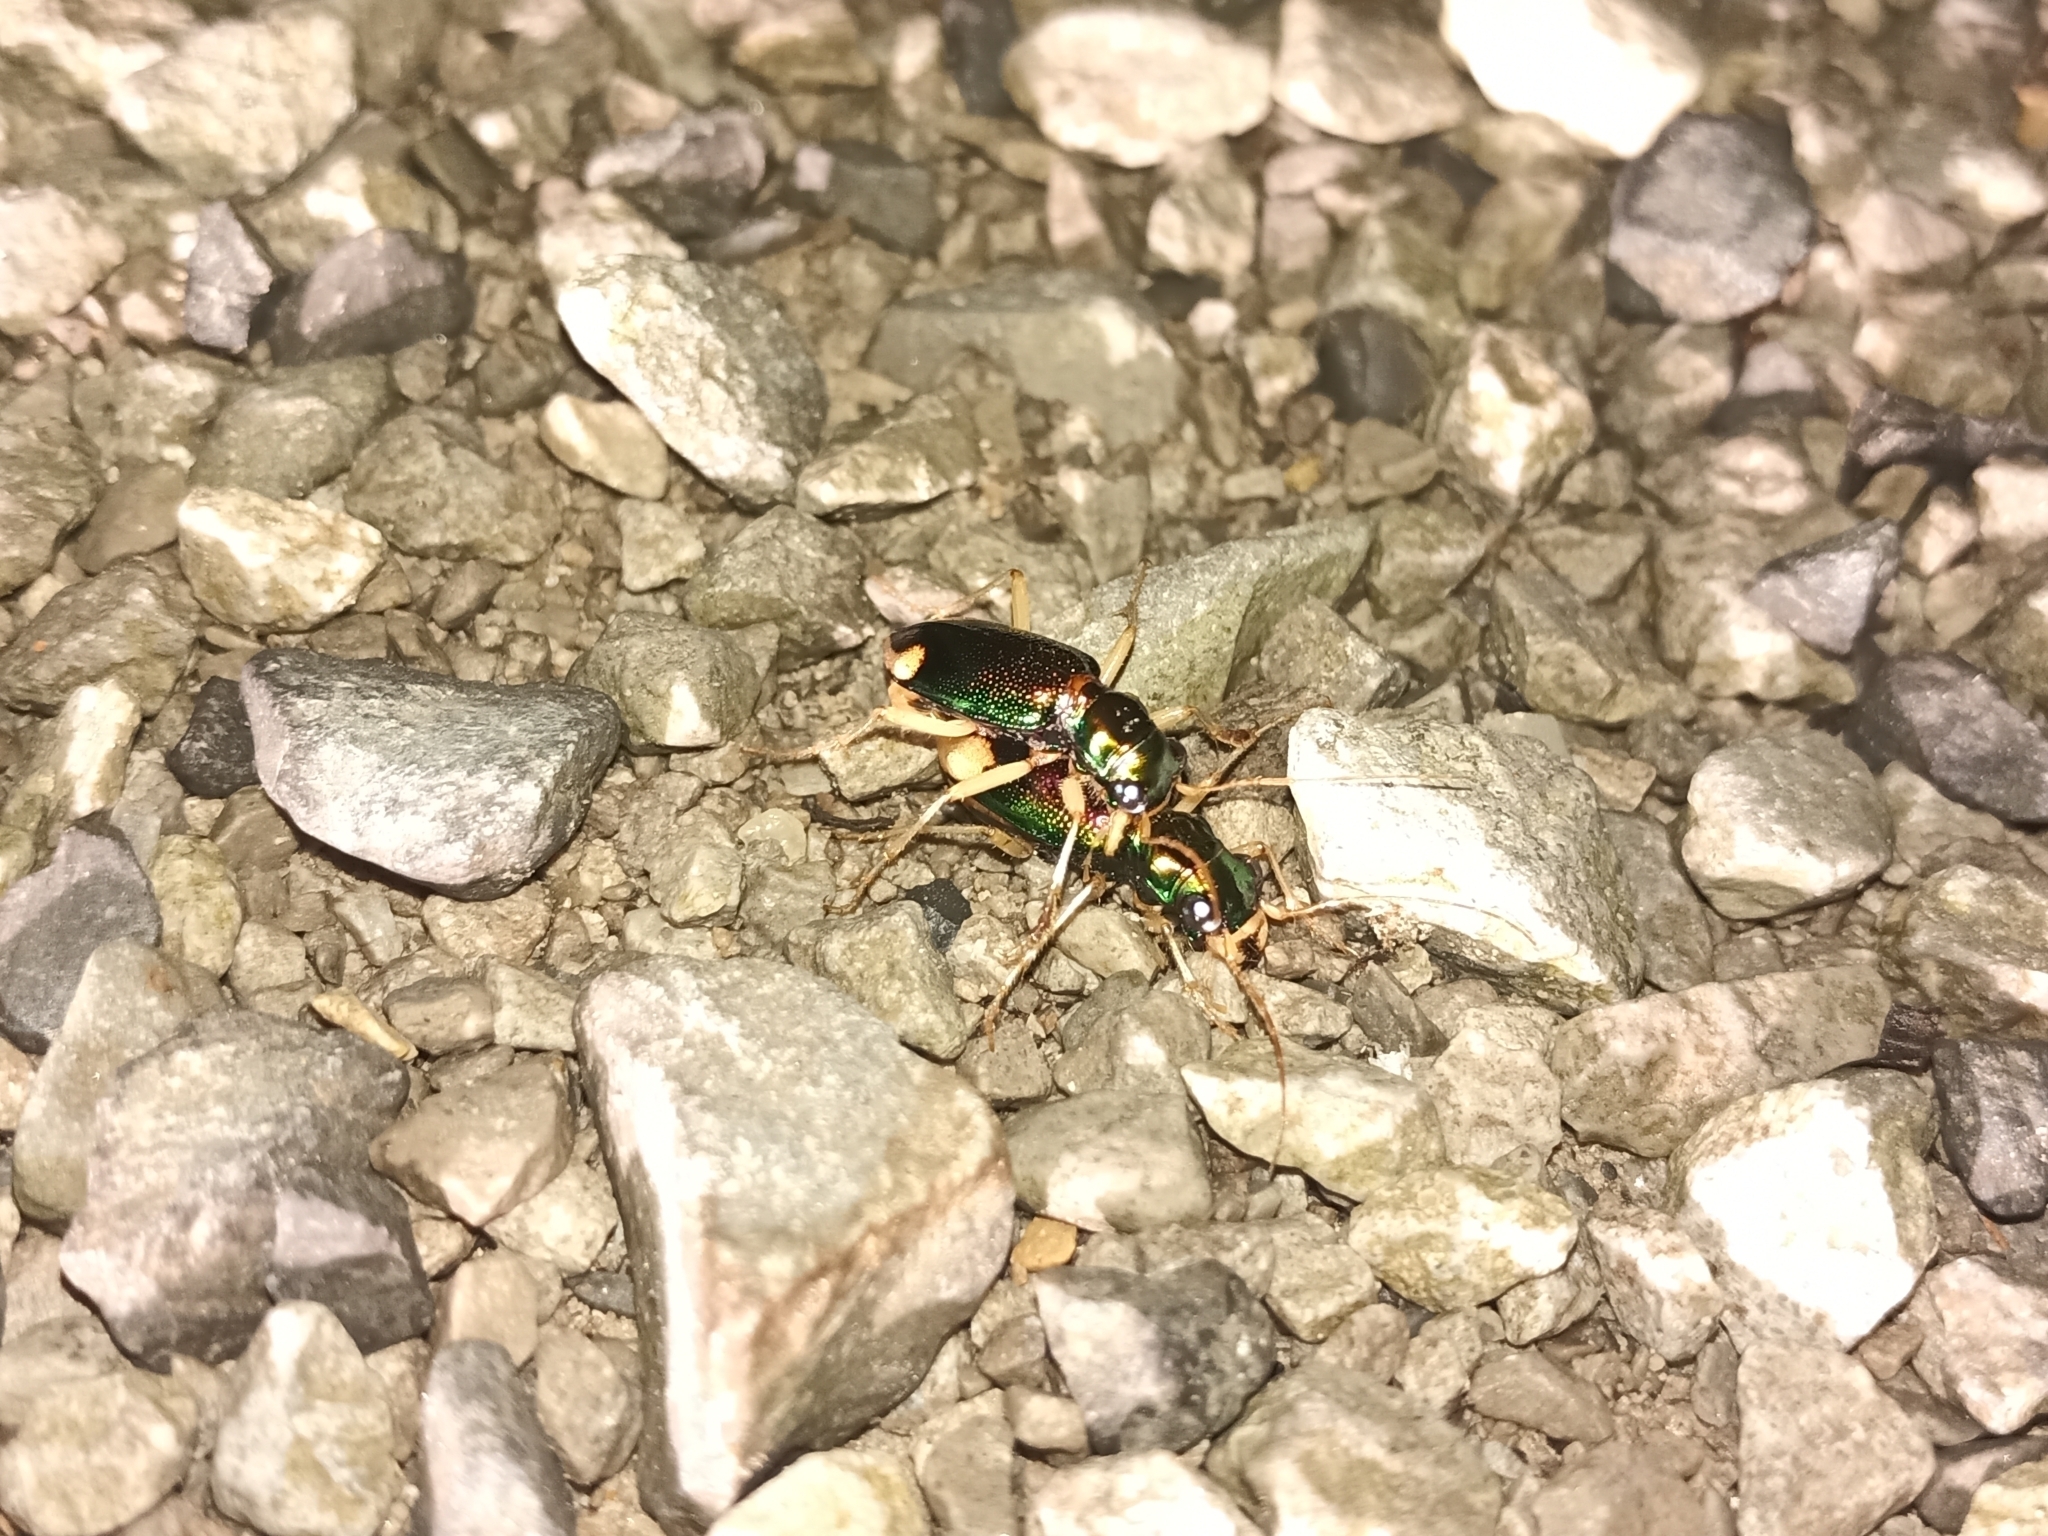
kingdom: Animalia
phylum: Arthropoda
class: Insecta
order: Coleoptera
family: Carabidae
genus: Tetracha
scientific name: Tetracha carolina
